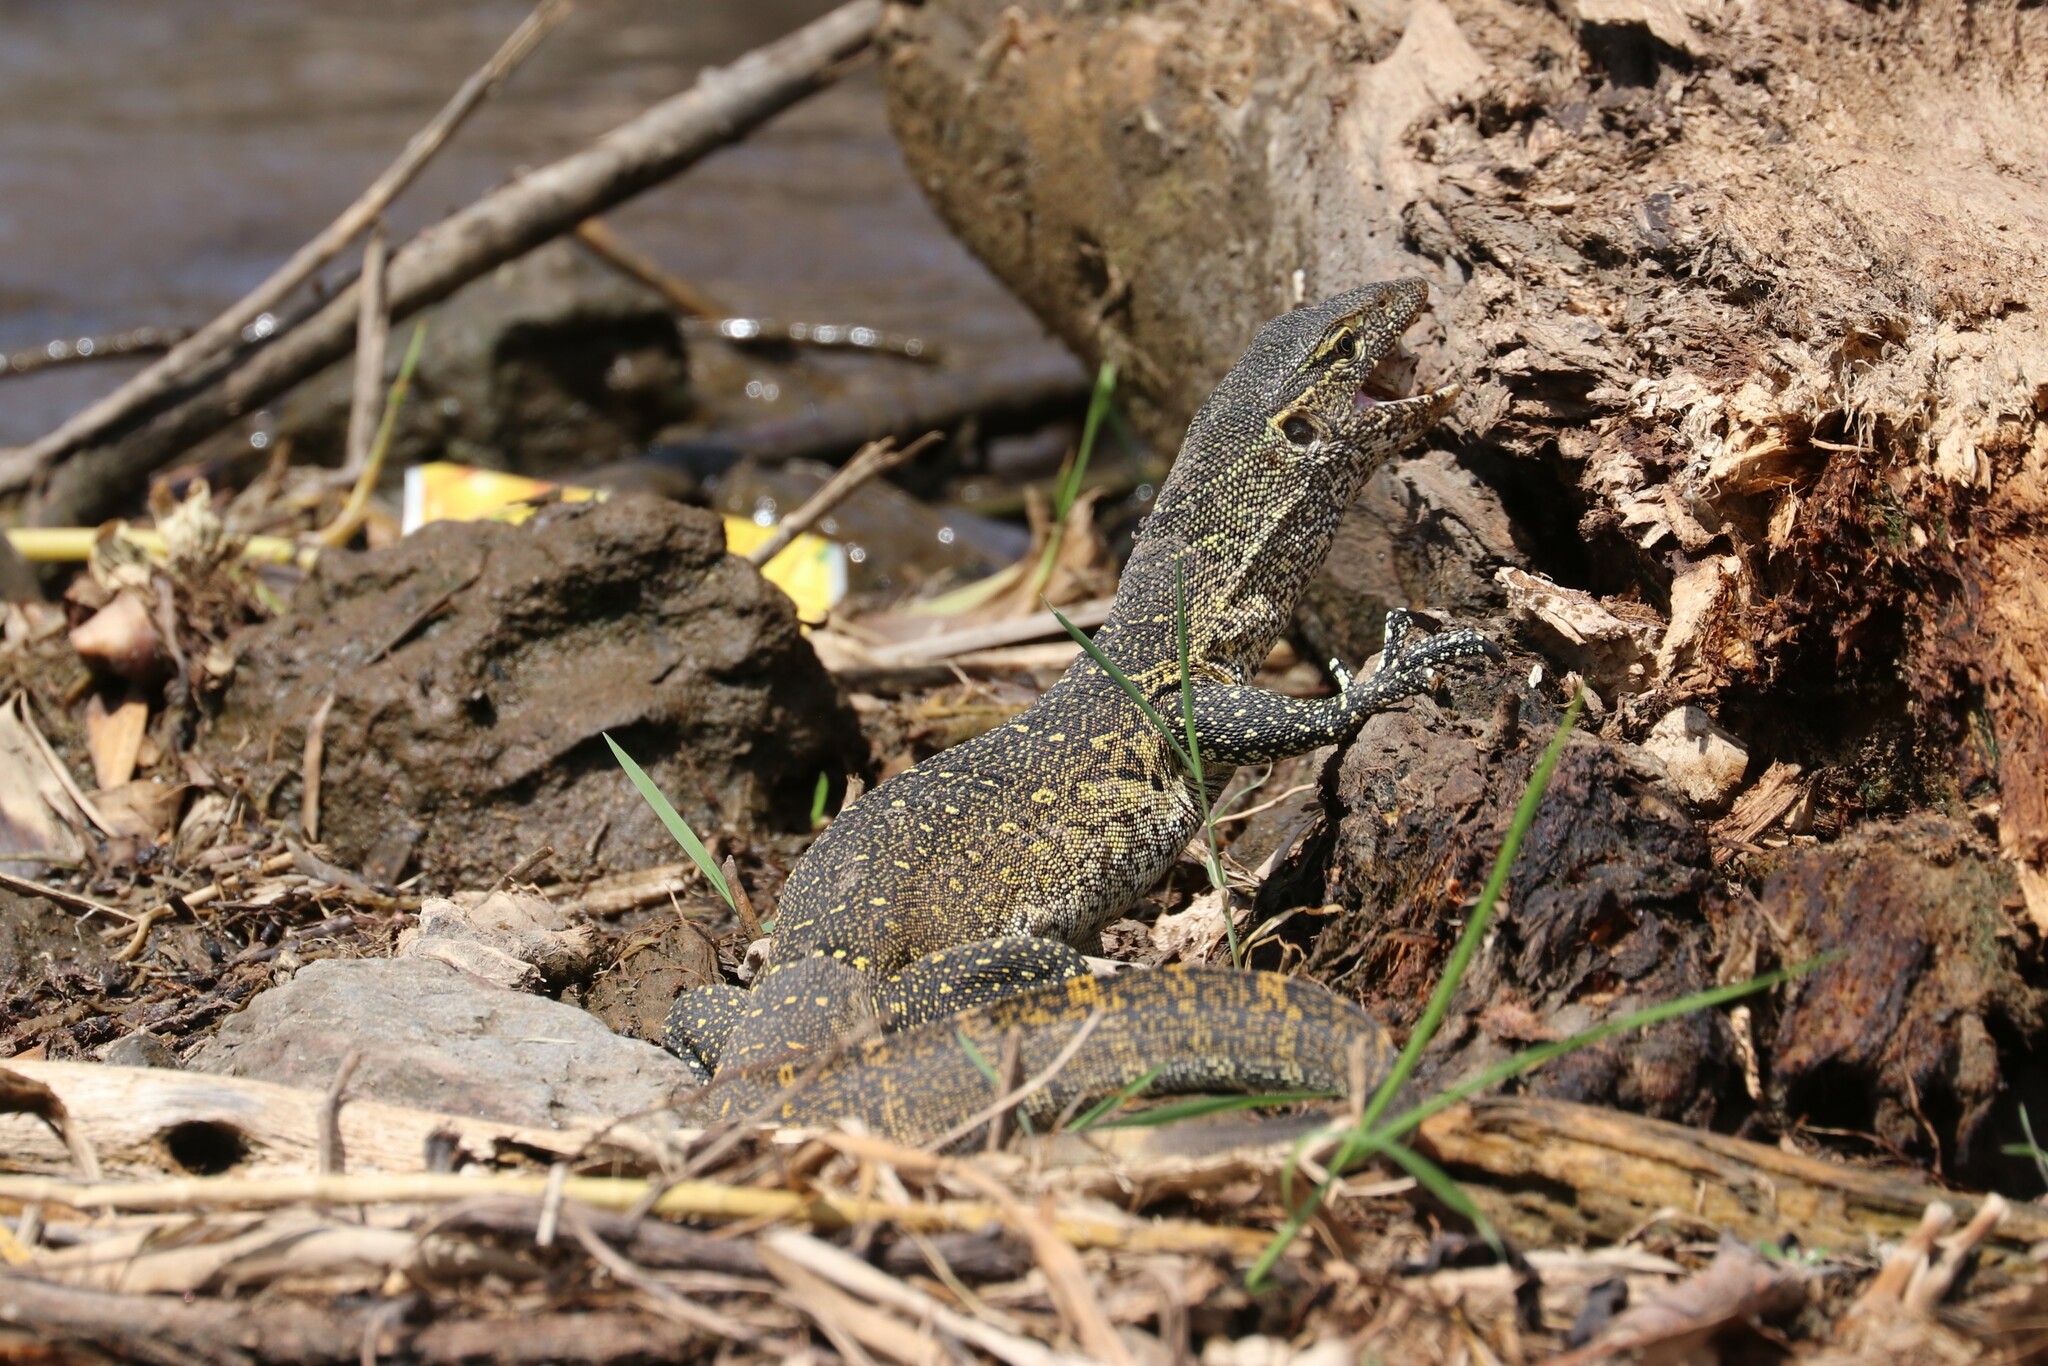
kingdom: Animalia
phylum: Chordata
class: Squamata
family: Varanidae
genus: Varanus
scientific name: Varanus niloticus
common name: Nile monitor
